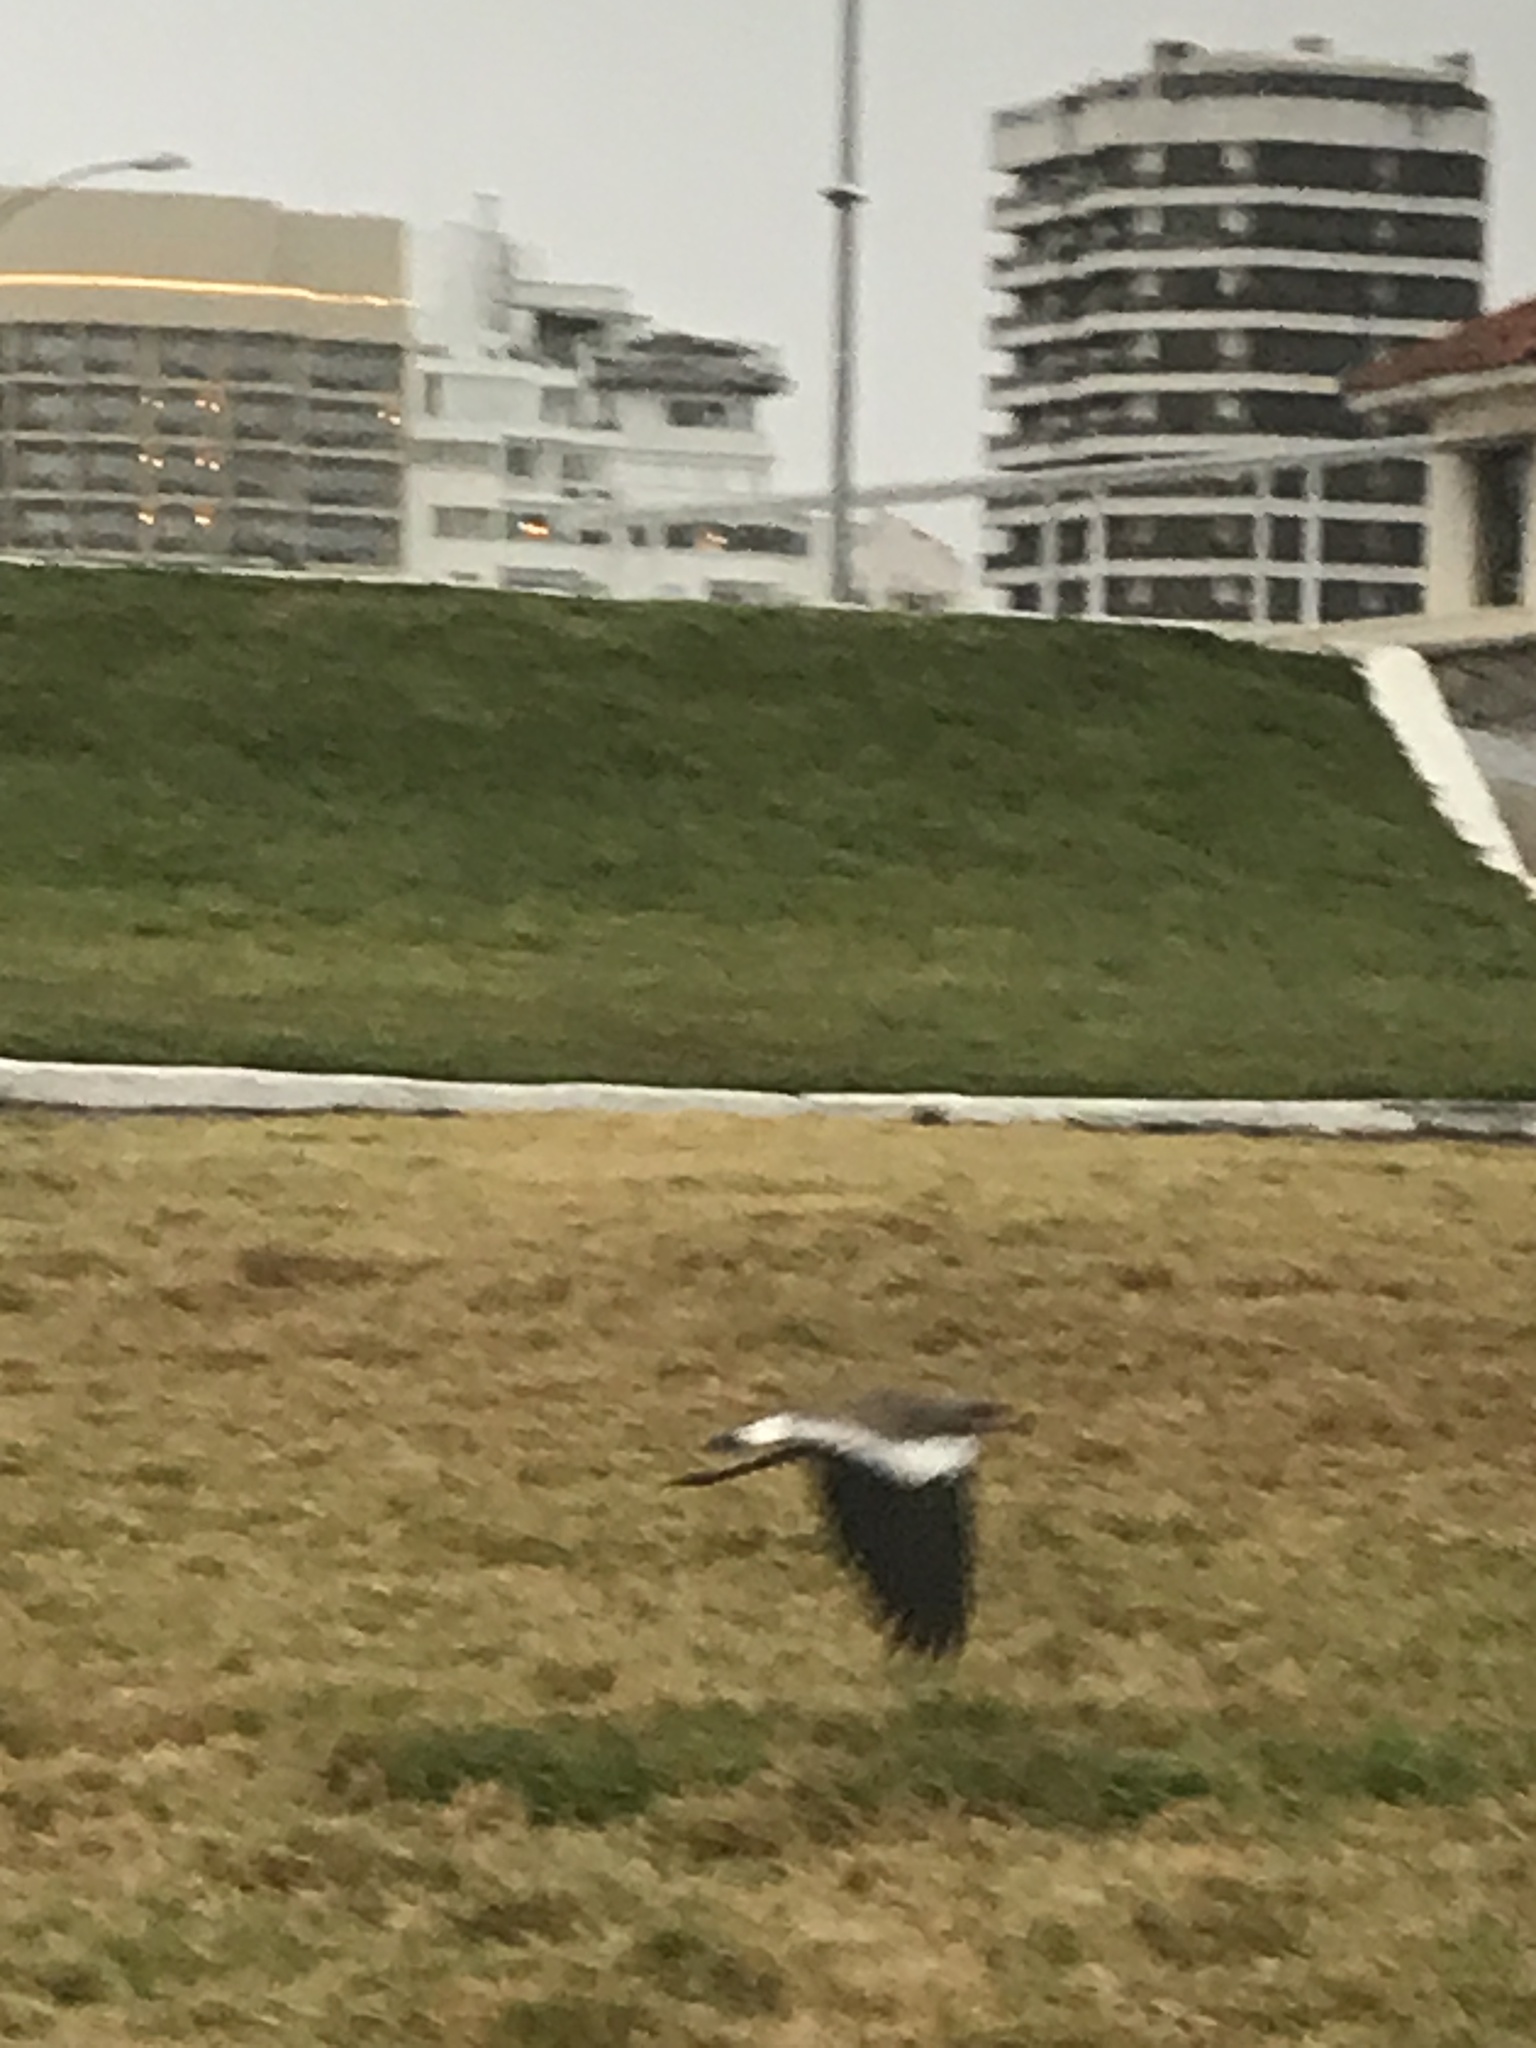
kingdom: Animalia
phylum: Chordata
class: Aves
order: Charadriiformes
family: Charadriidae
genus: Vanellus
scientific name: Vanellus chilensis
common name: Southern lapwing
